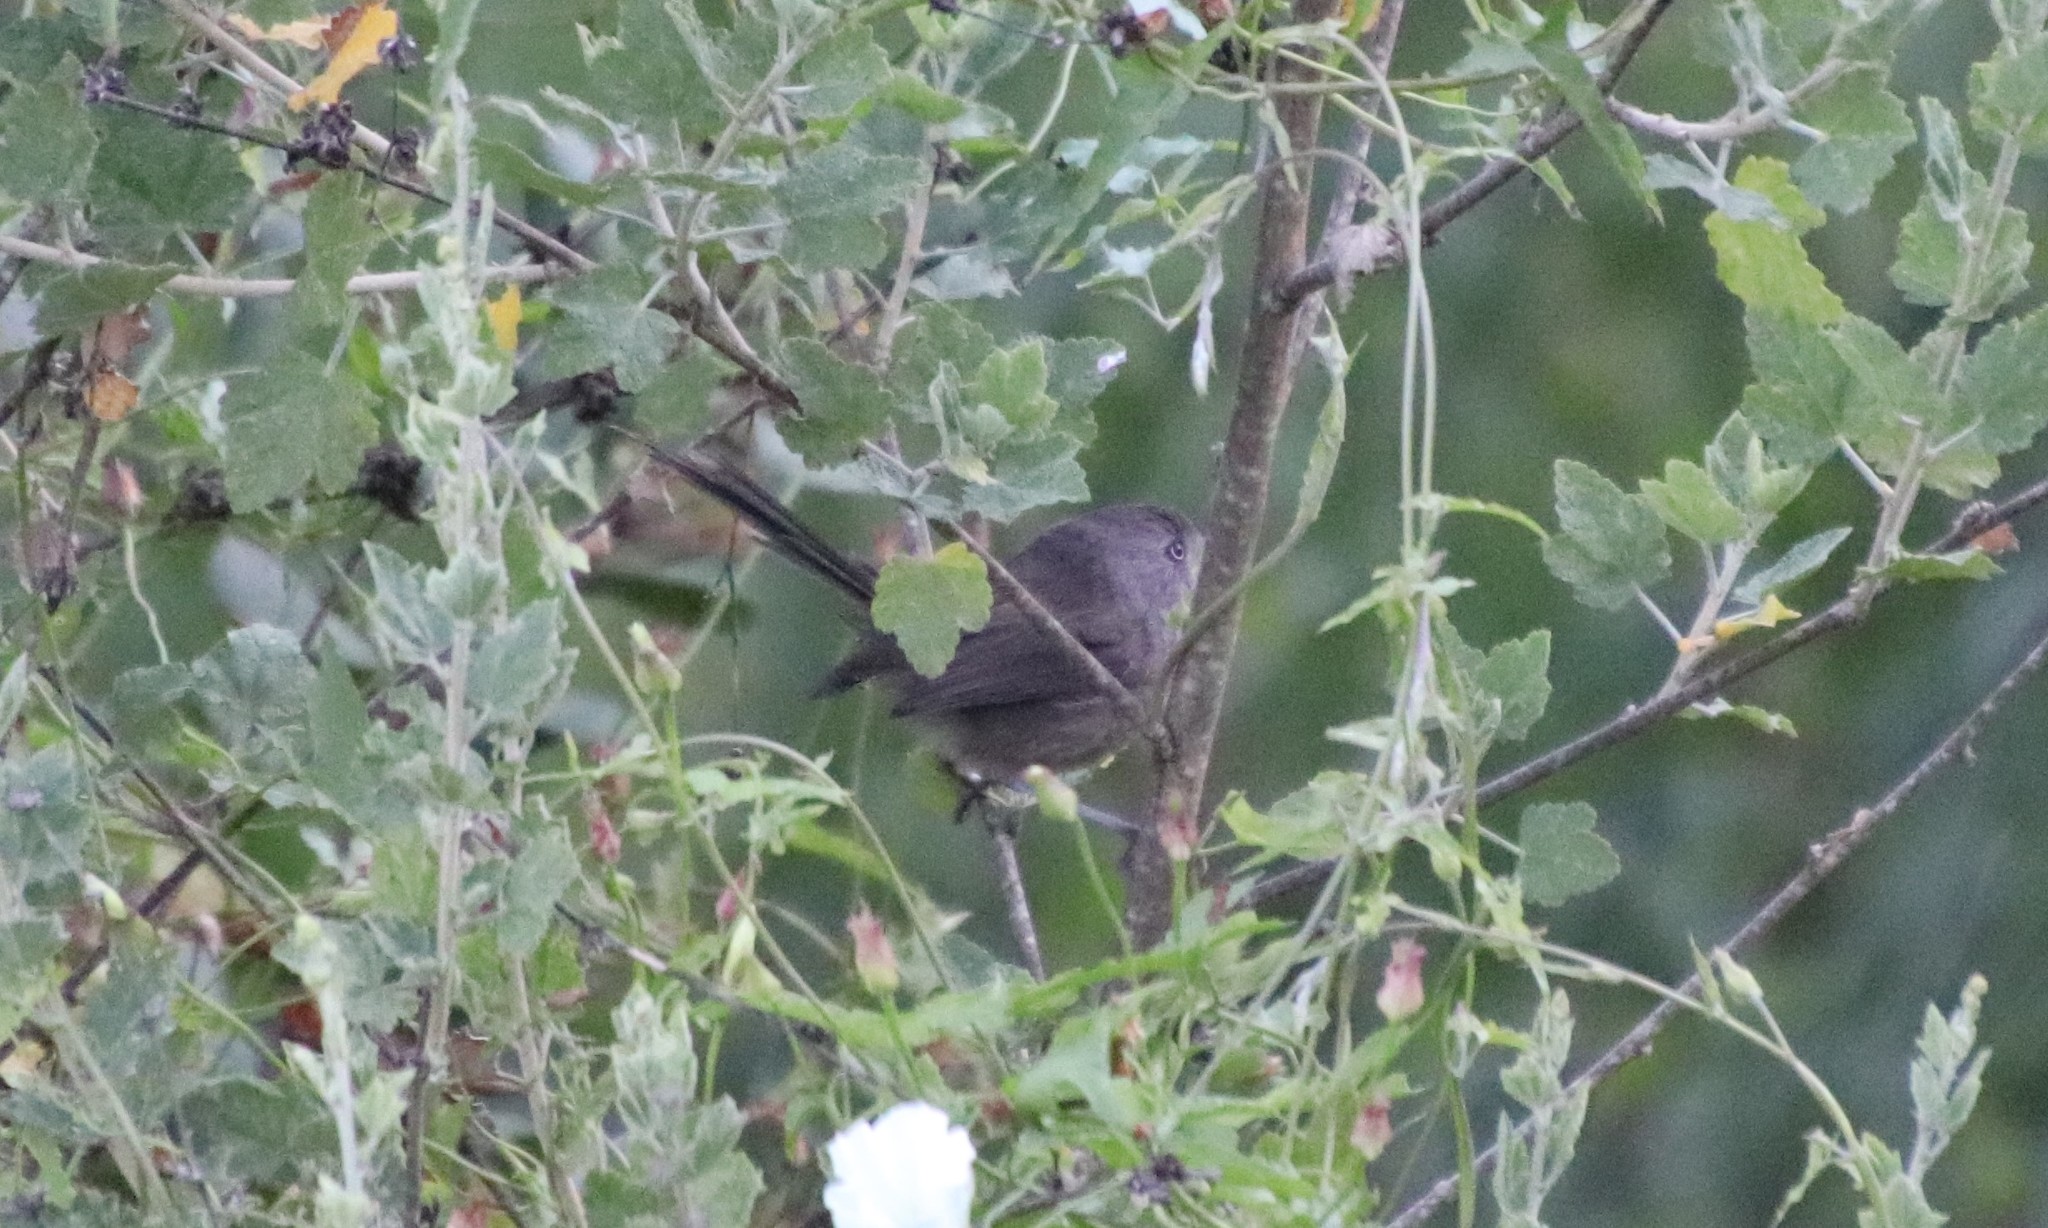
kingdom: Animalia
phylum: Chordata
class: Aves
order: Passeriformes
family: Sylviidae
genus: Chamaea
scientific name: Chamaea fasciata
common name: Wrentit
